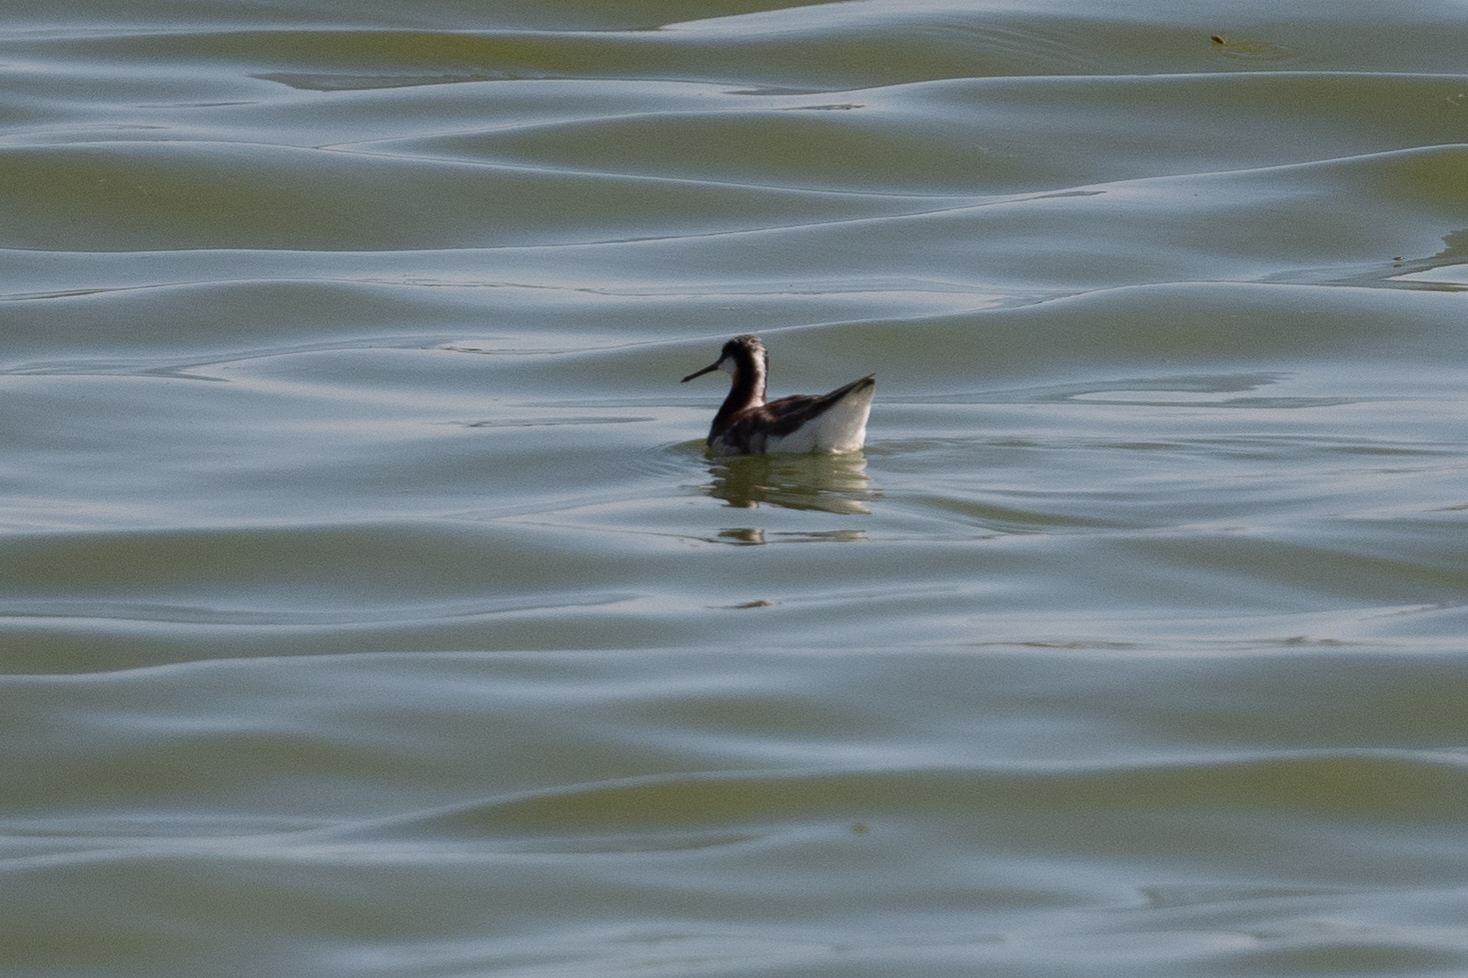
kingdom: Animalia
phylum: Chordata
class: Aves
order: Charadriiformes
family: Scolopacidae
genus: Phalaropus
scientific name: Phalaropus tricolor
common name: Wilson's phalarope
